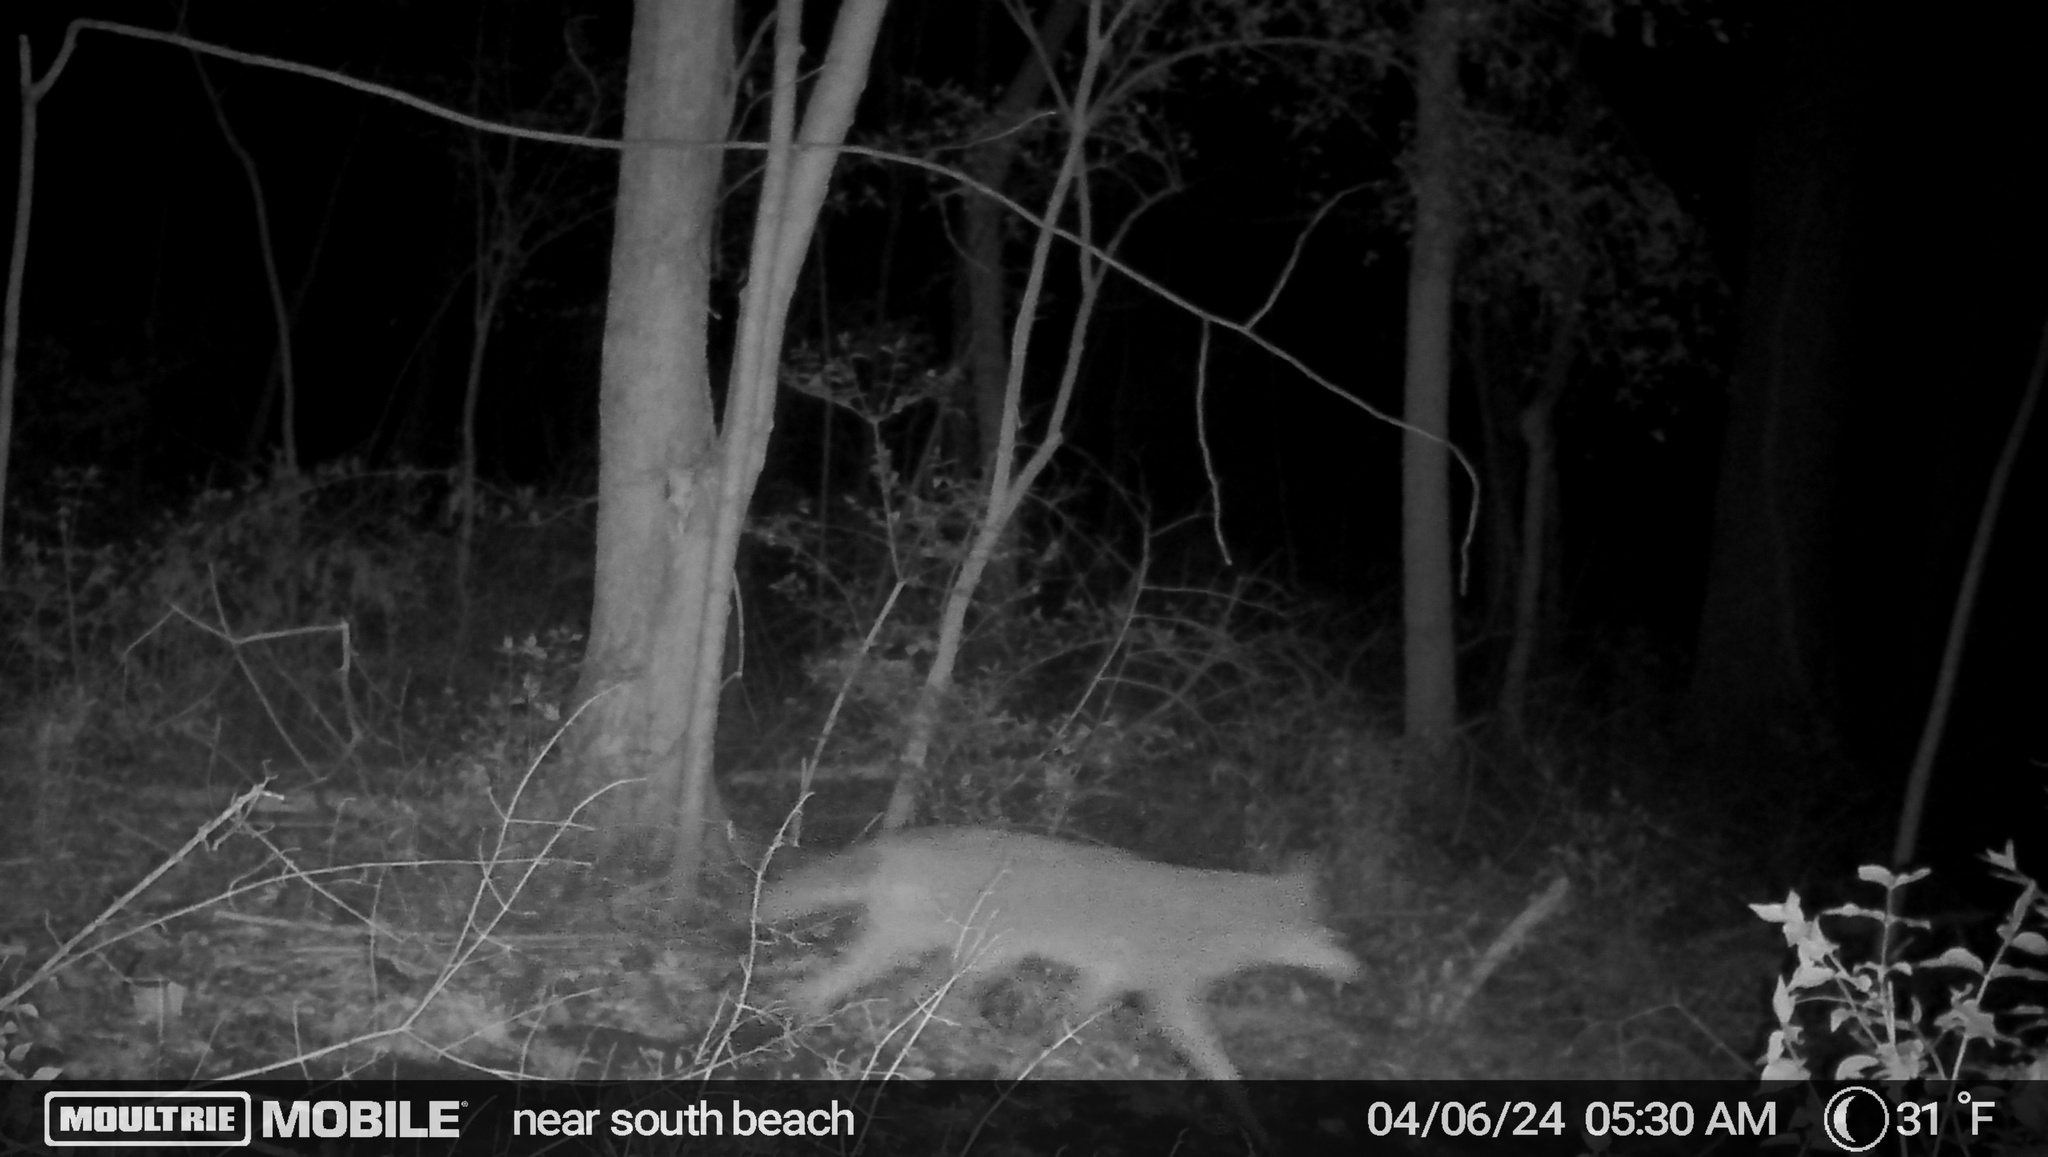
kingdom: Animalia
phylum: Chordata
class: Mammalia
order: Carnivora
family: Canidae
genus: Canis
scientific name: Canis latrans
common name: Coyote
